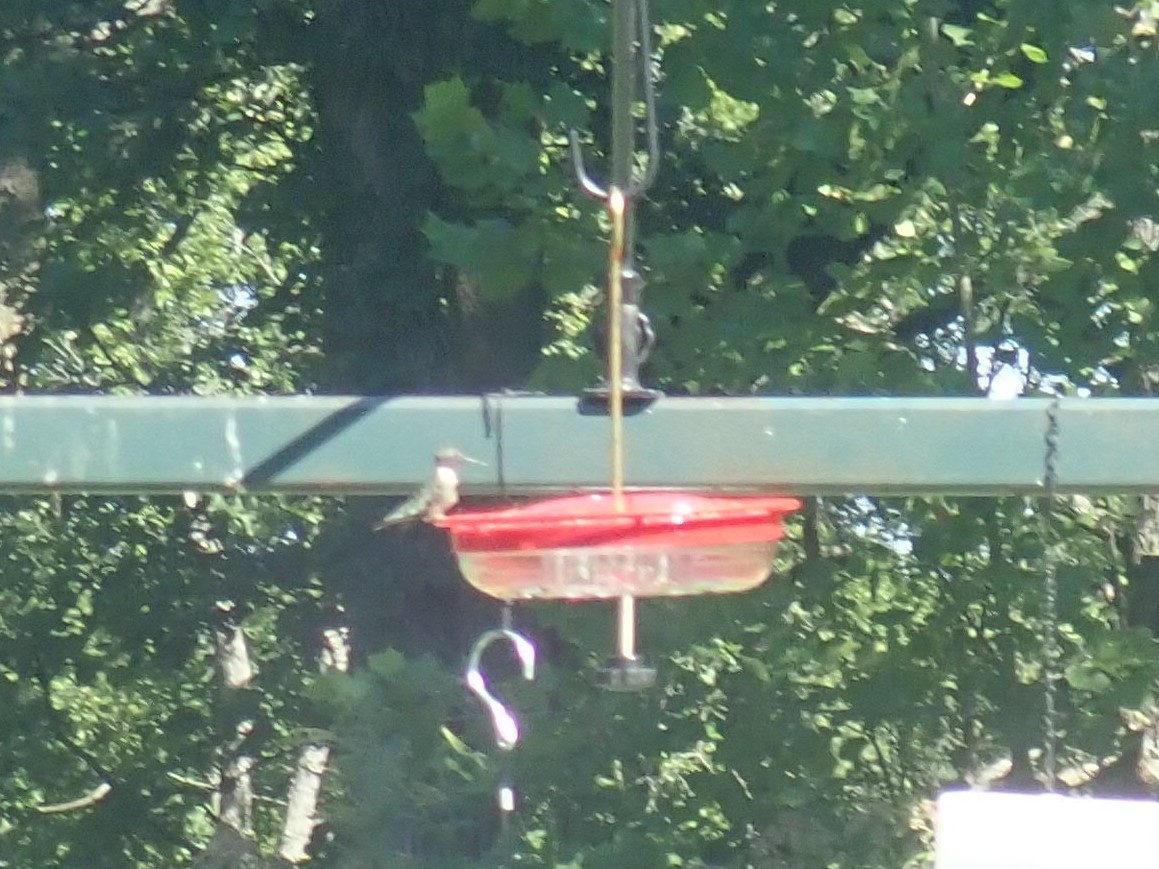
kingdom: Animalia
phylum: Chordata
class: Aves
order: Apodiformes
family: Trochilidae
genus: Archilochus
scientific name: Archilochus colubris
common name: Ruby-throated hummingbird
